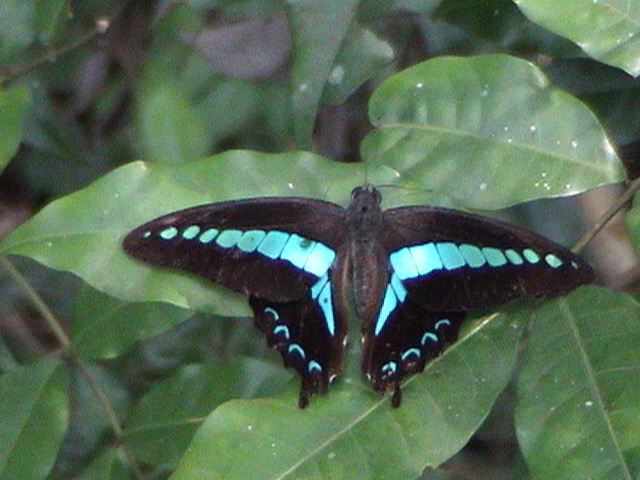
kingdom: Animalia
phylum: Arthropoda
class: Insecta
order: Lepidoptera
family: Papilionidae
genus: Graphium
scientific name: Graphium
